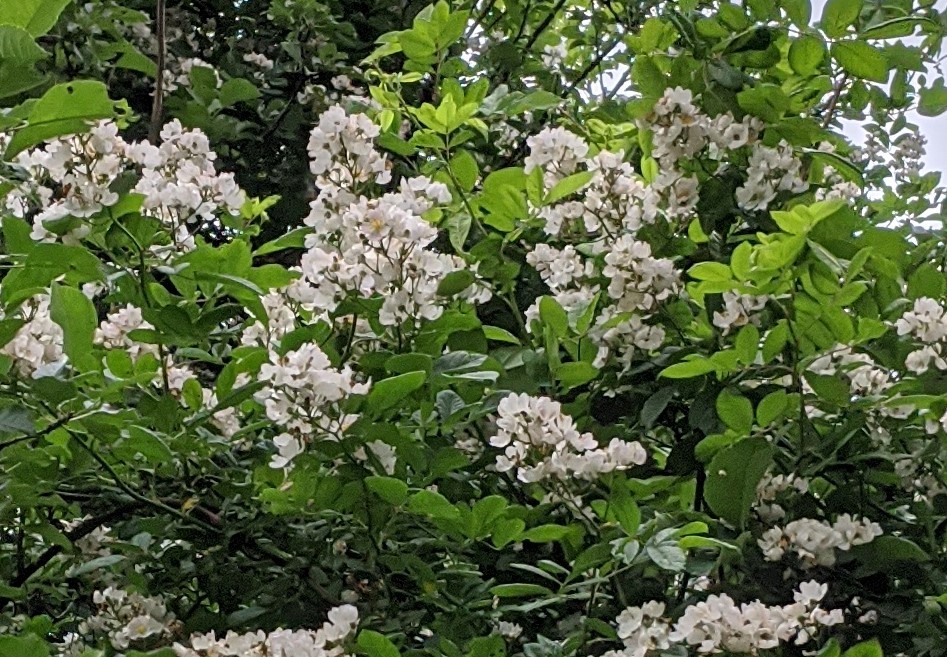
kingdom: Plantae
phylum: Tracheophyta
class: Magnoliopsida
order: Rosales
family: Rosaceae
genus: Rosa
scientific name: Rosa multiflora
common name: Multiflora rose
